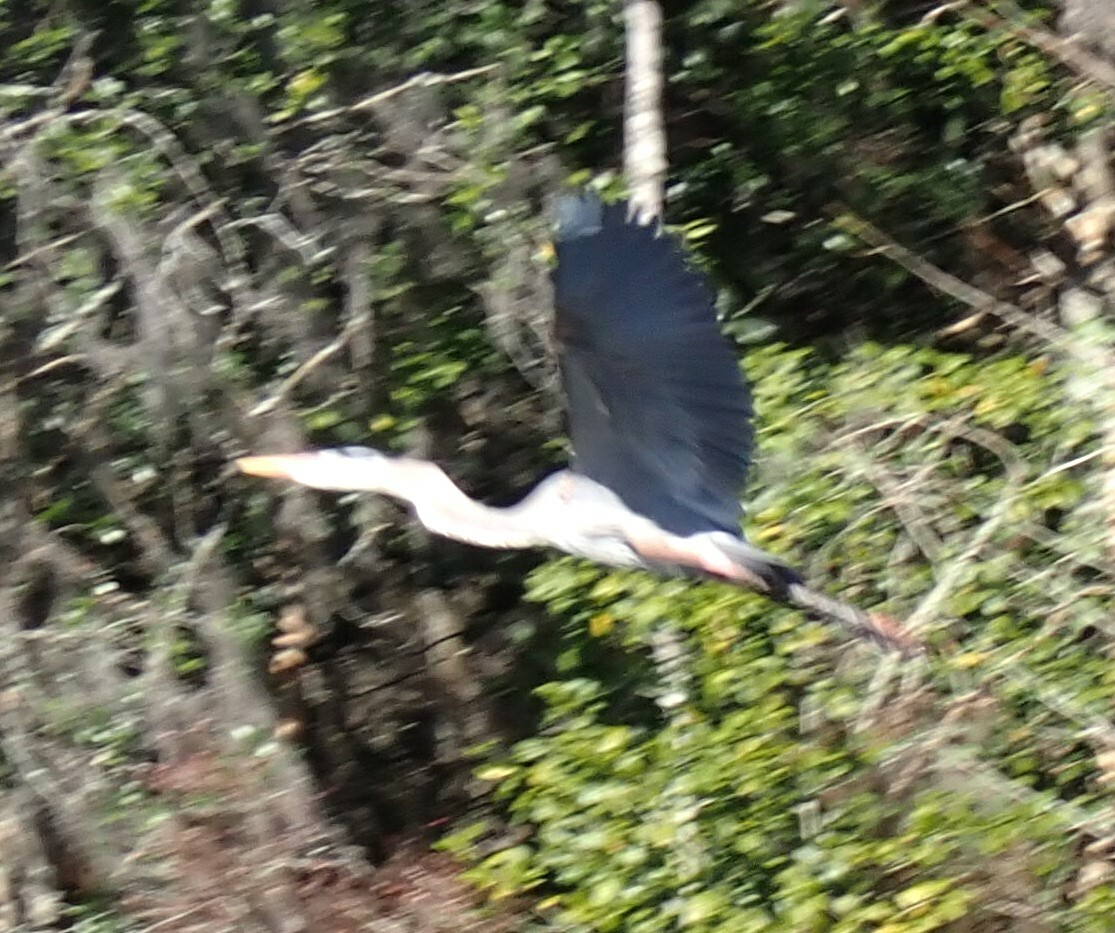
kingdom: Animalia
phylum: Chordata
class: Aves
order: Pelecaniformes
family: Ardeidae
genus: Ardea
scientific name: Ardea herodias
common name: Great blue heron
